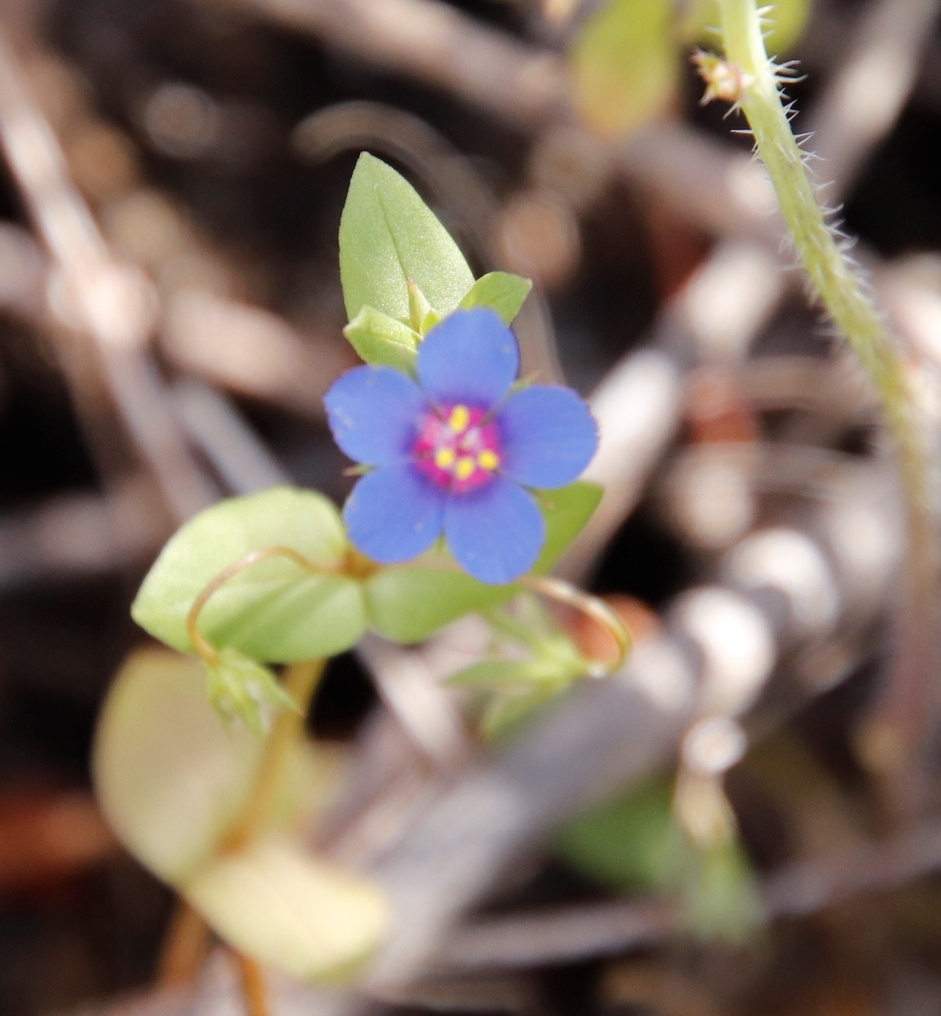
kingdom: Plantae
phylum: Tracheophyta
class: Magnoliopsida
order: Ericales
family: Primulaceae
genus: Lysimachia
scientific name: Lysimachia loeflingii
